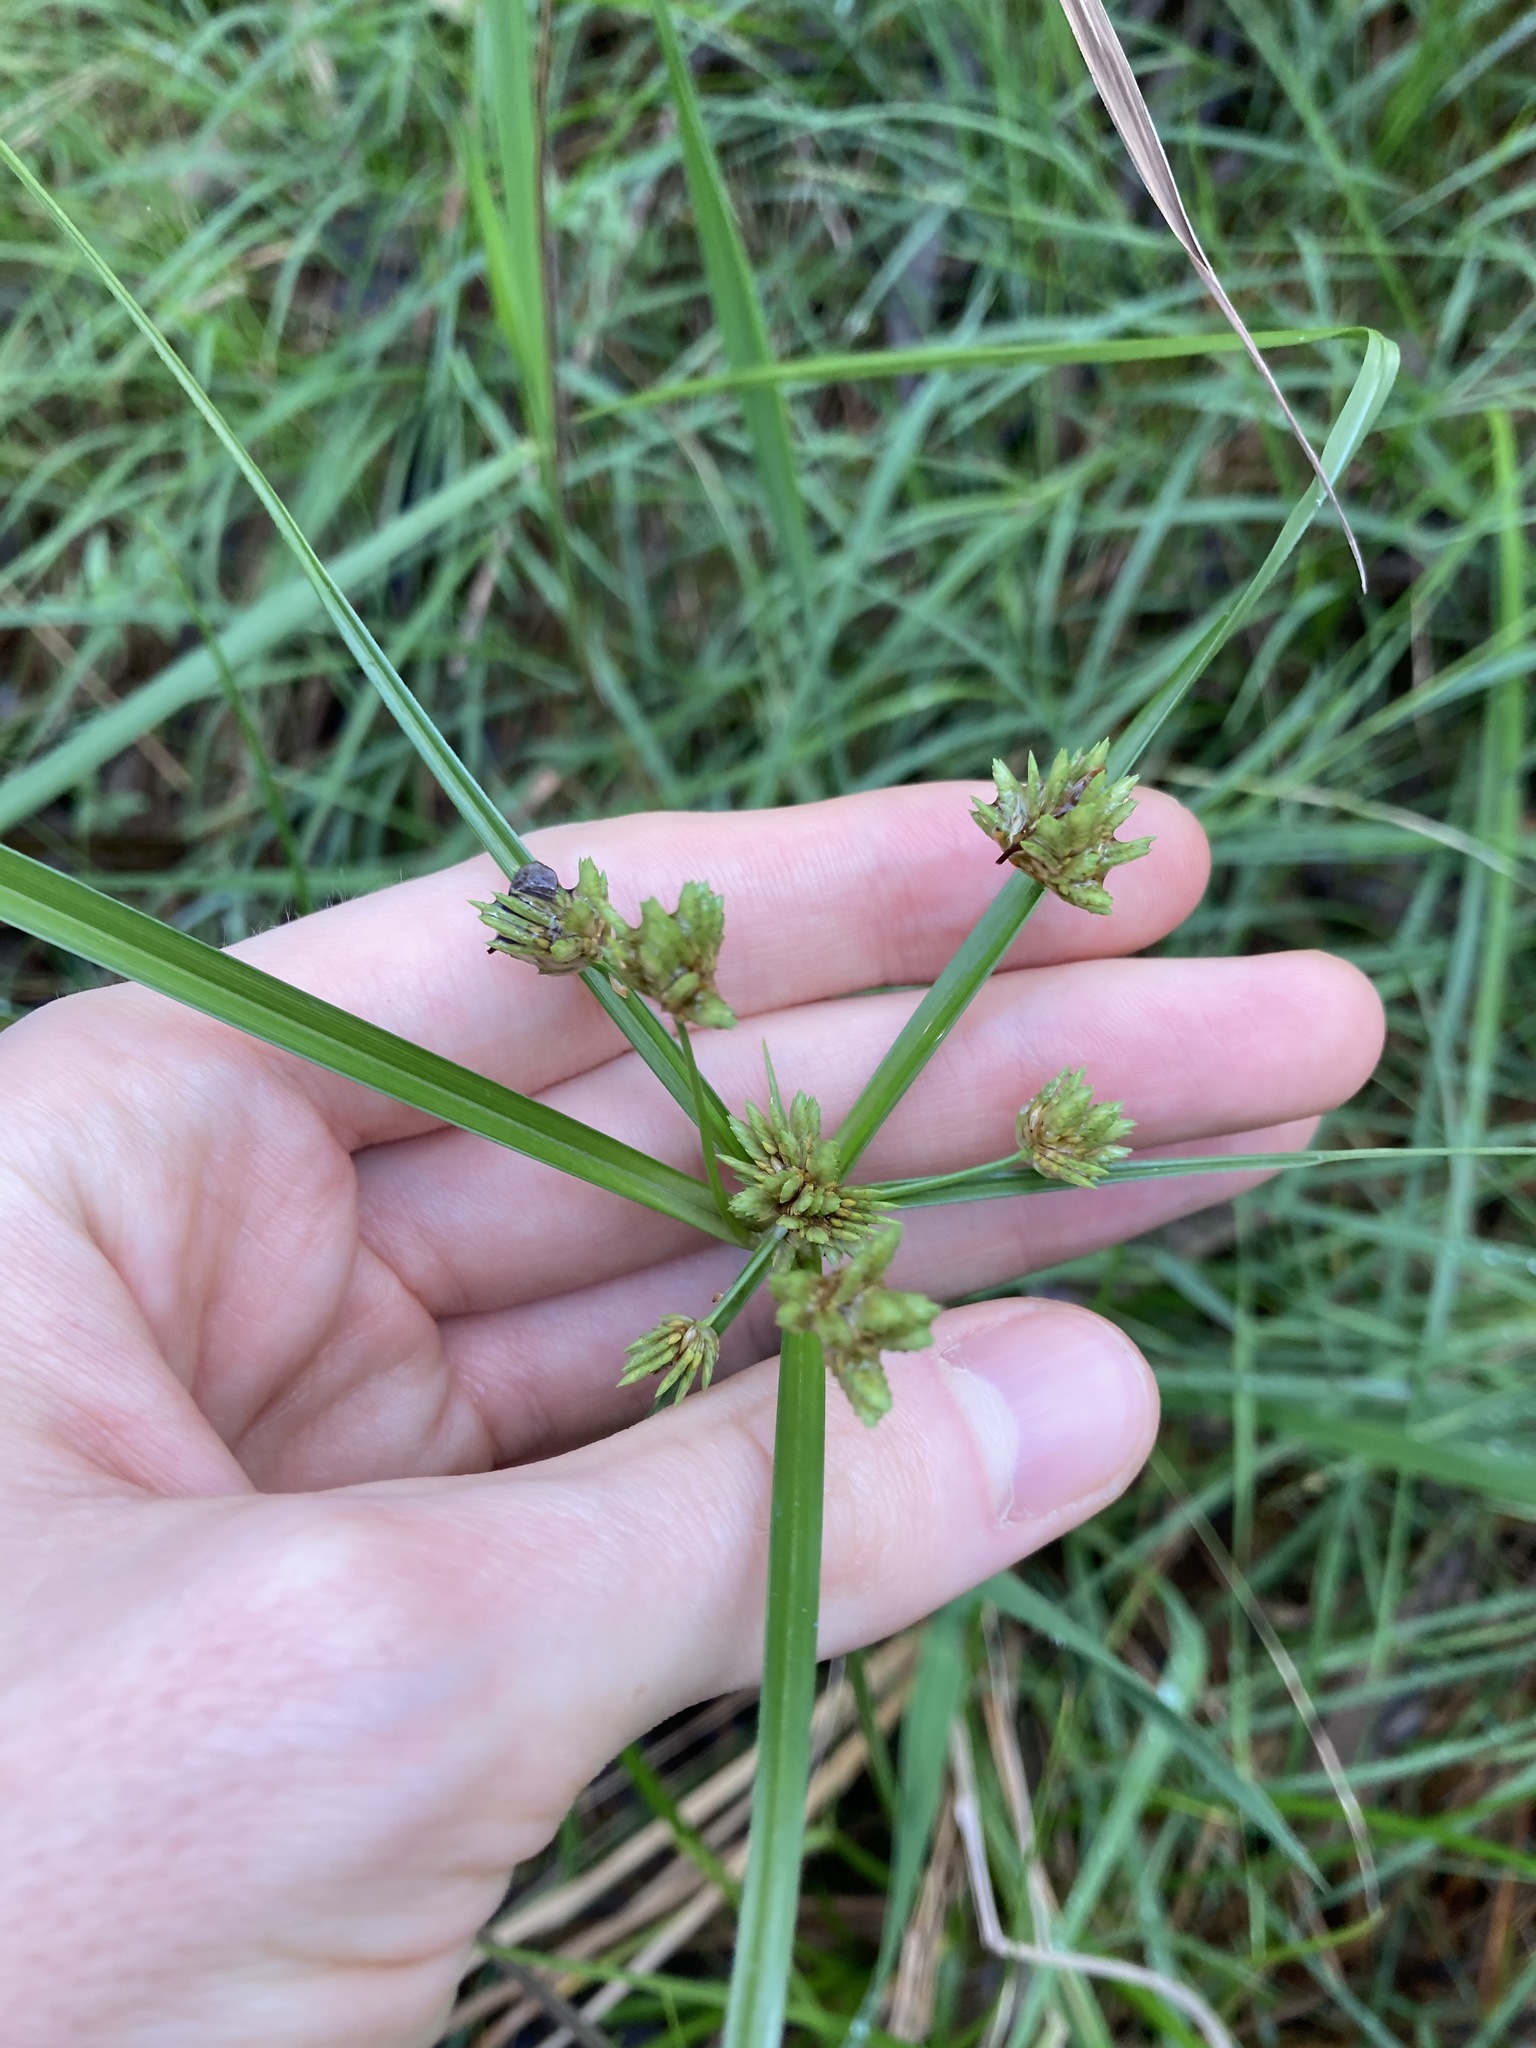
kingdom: Plantae
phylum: Tracheophyta
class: Liliopsida
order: Poales
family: Cyperaceae
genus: Cyperus
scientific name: Cyperus eragrostis
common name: Tall flatsedge
